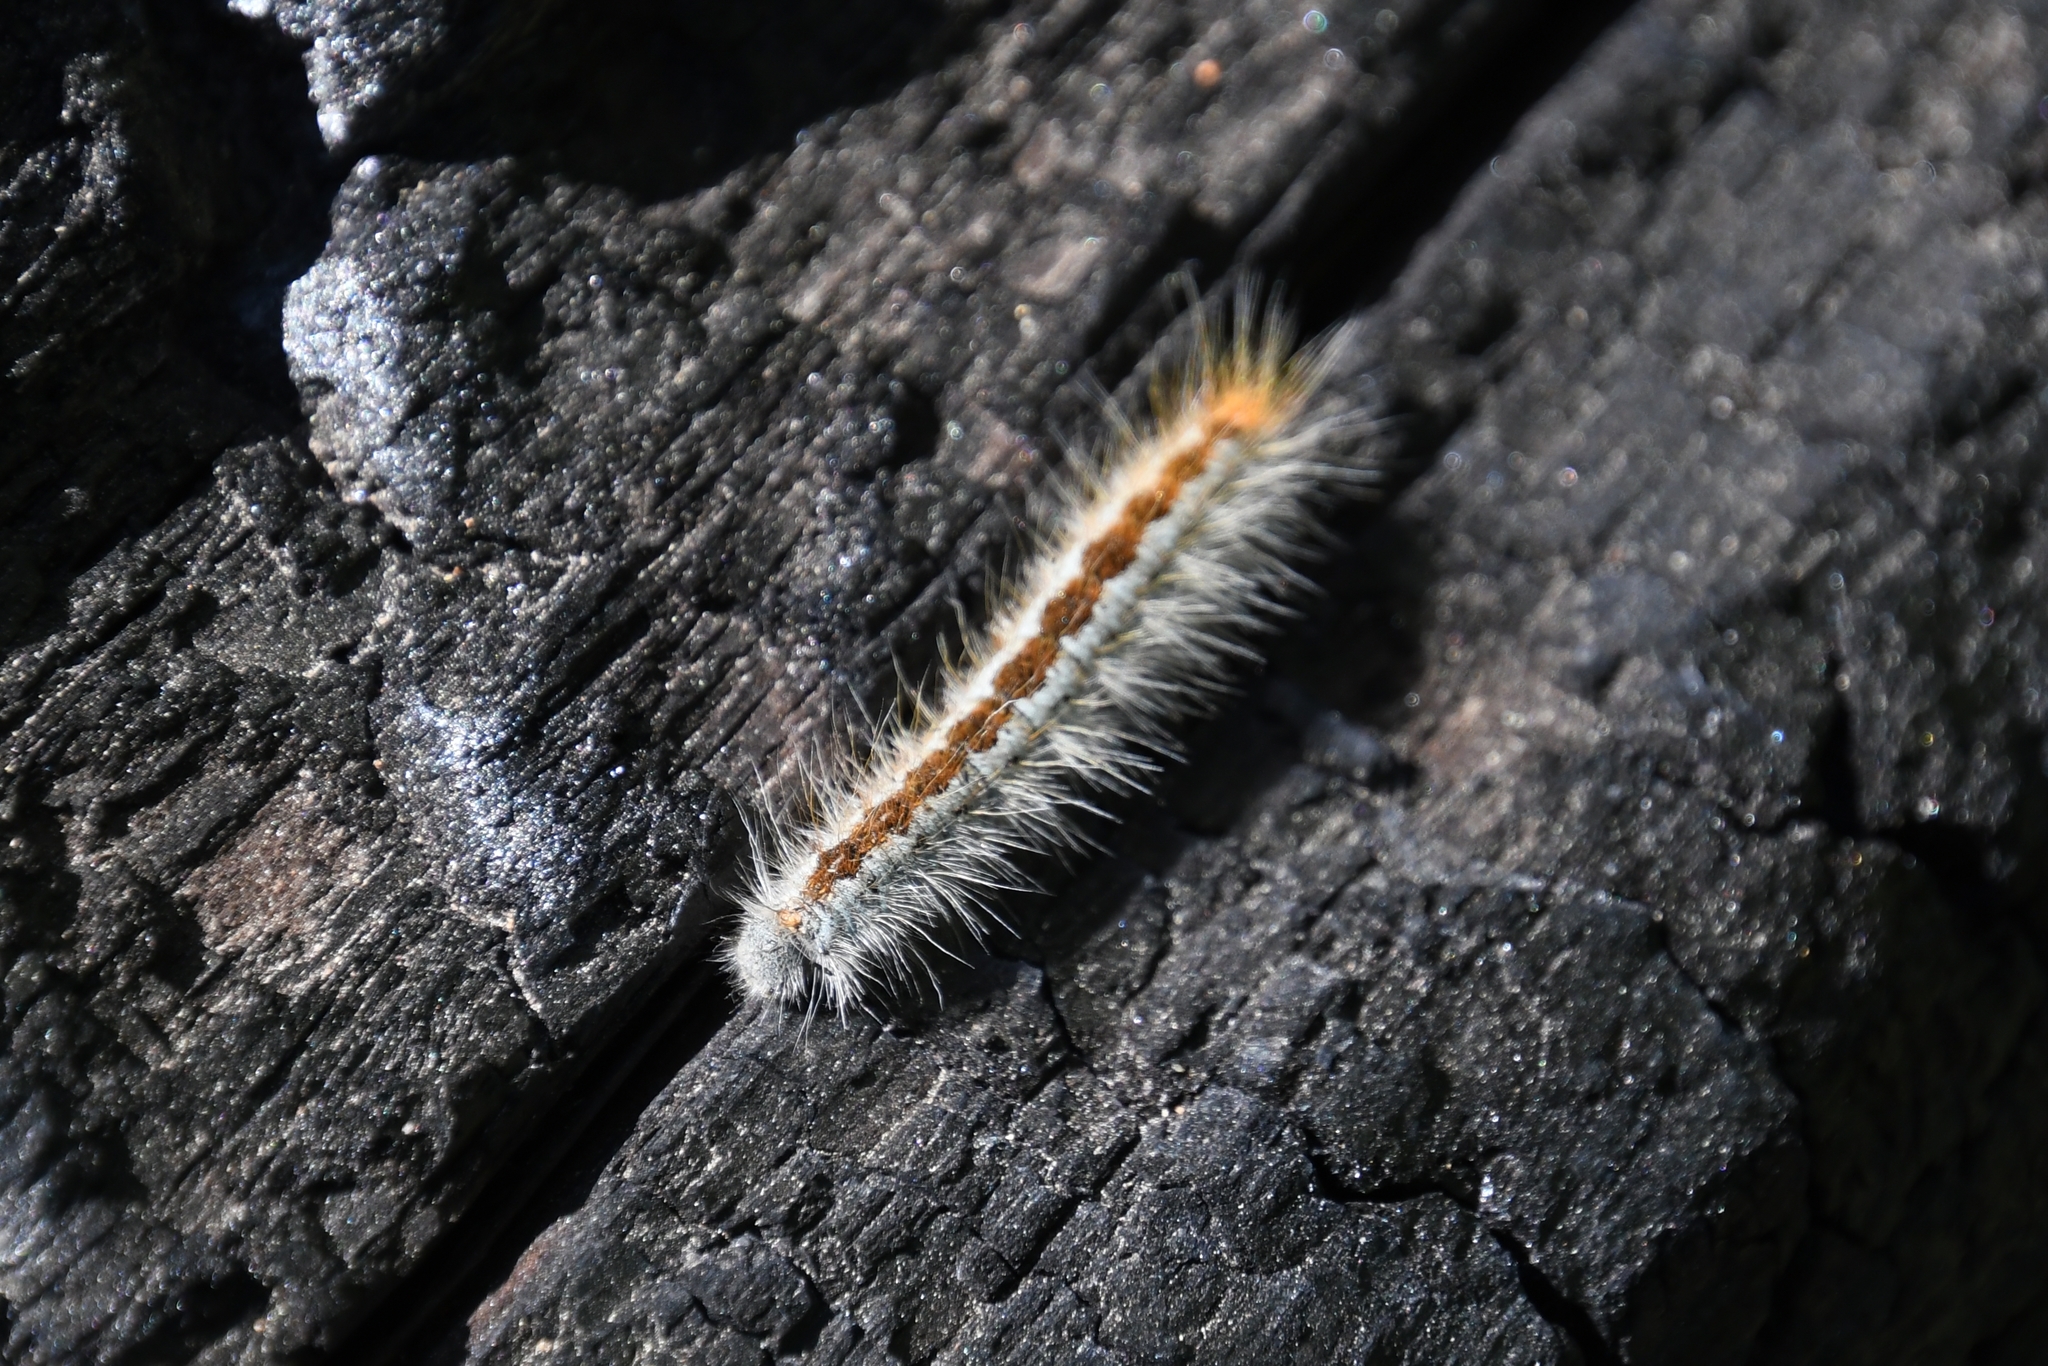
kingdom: Animalia
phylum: Arthropoda
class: Insecta
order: Lepidoptera
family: Lasiocampidae
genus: Malacosoma
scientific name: Malacosoma incurva
